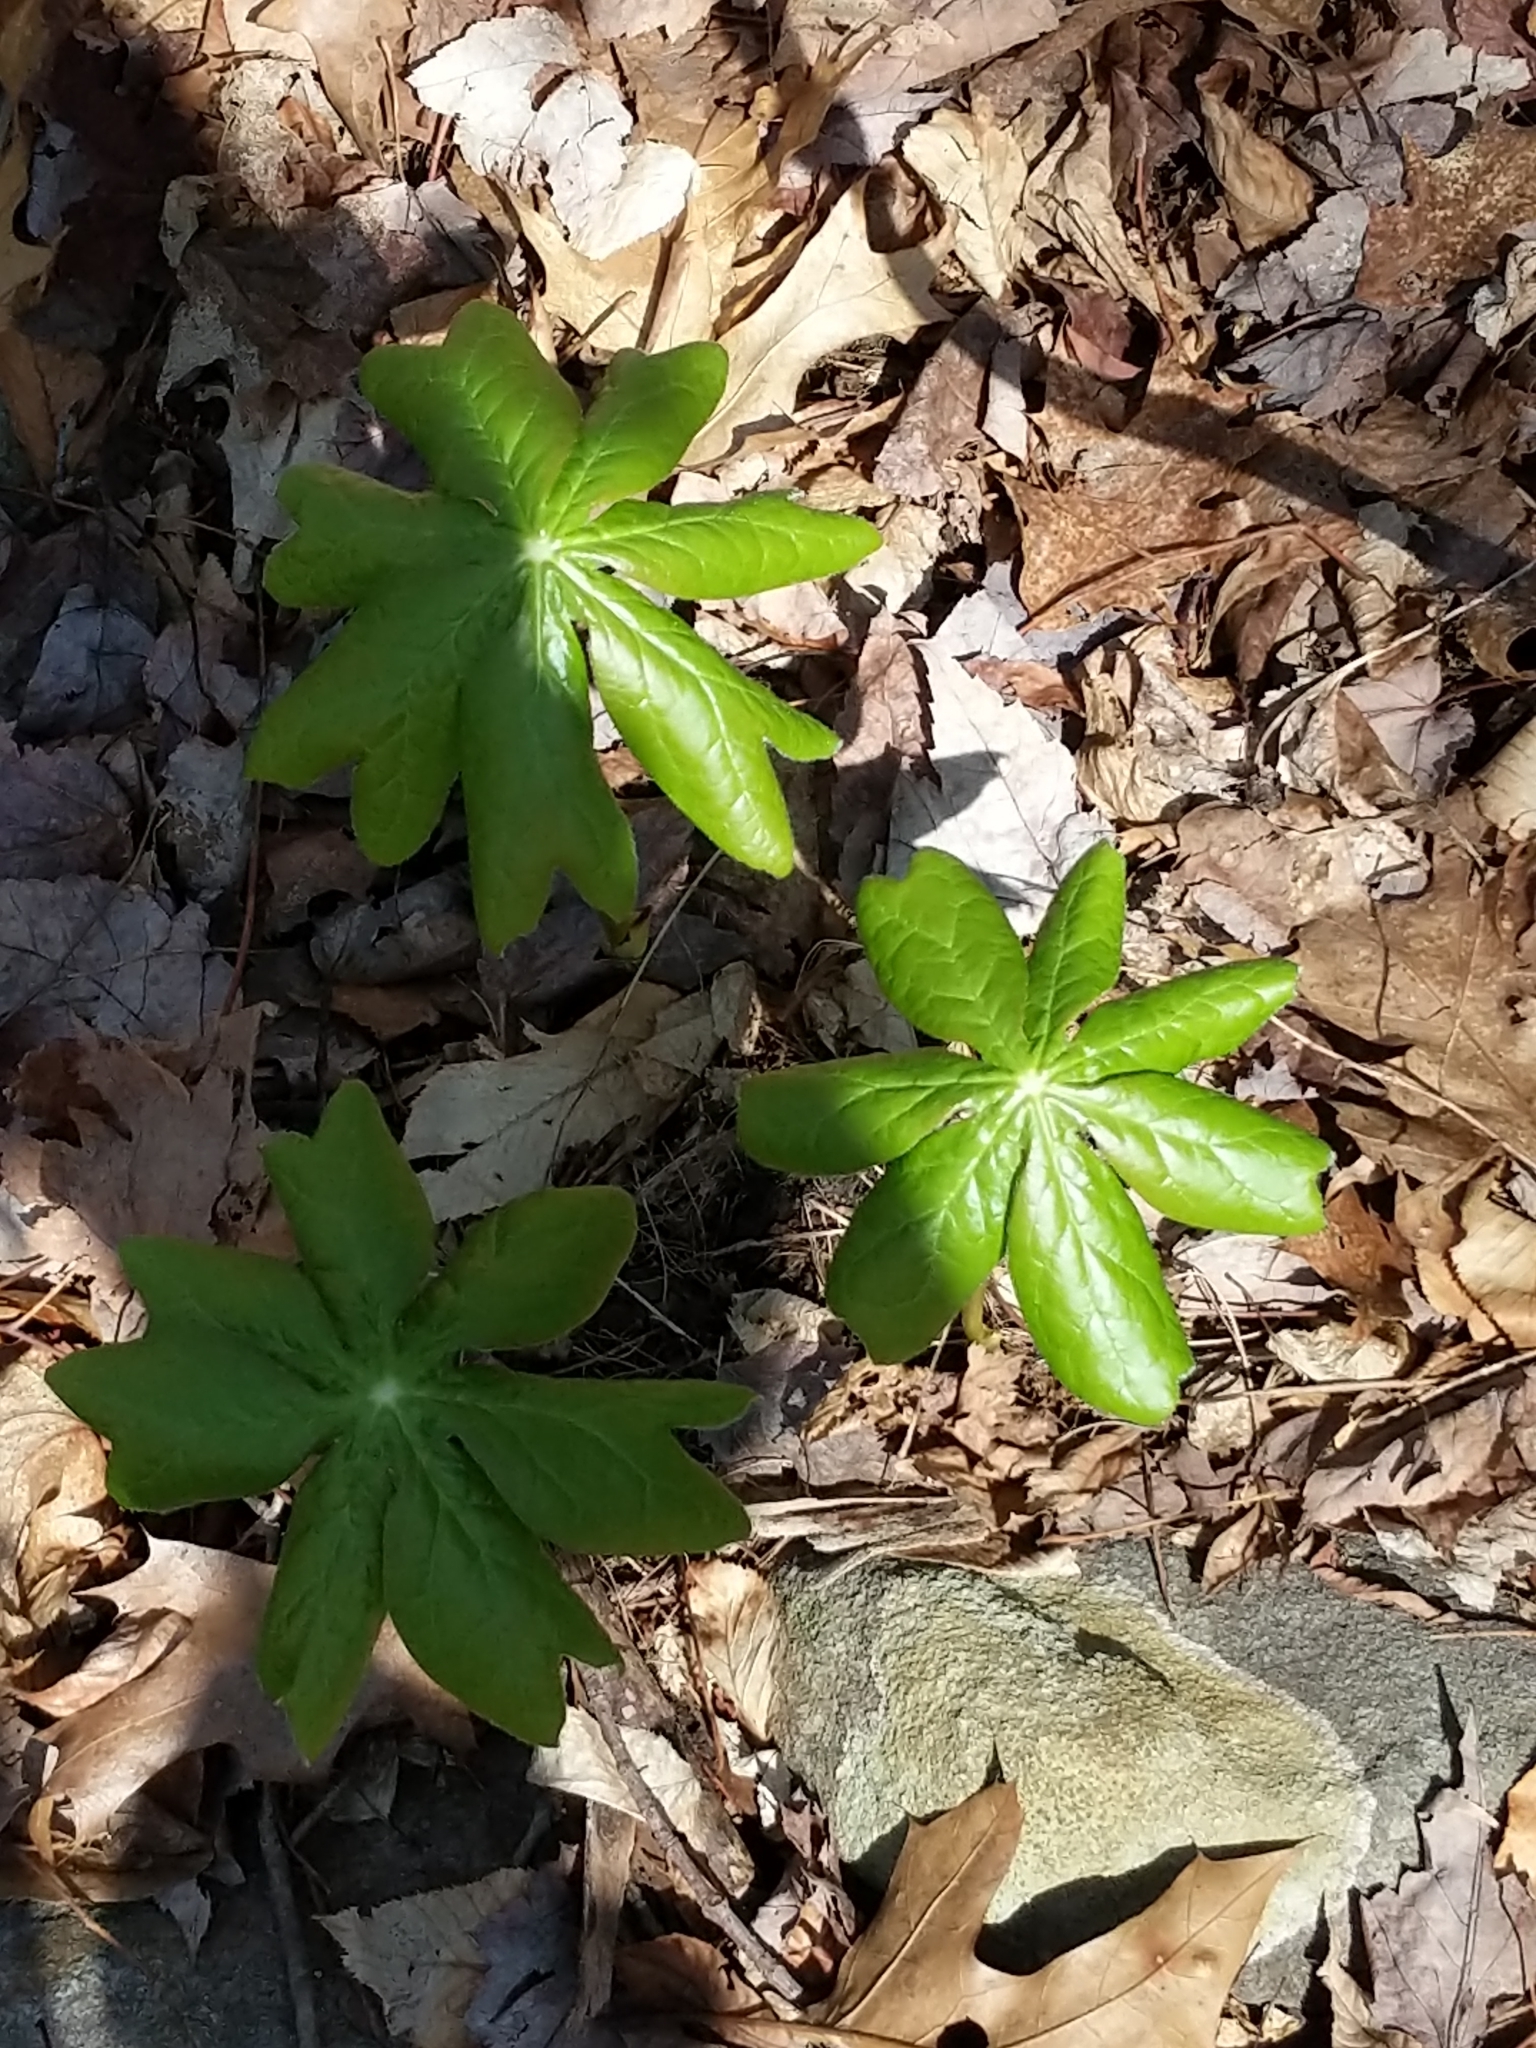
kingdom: Plantae
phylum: Tracheophyta
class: Magnoliopsida
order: Ranunculales
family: Berberidaceae
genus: Podophyllum
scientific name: Podophyllum peltatum
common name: Wild mandrake
